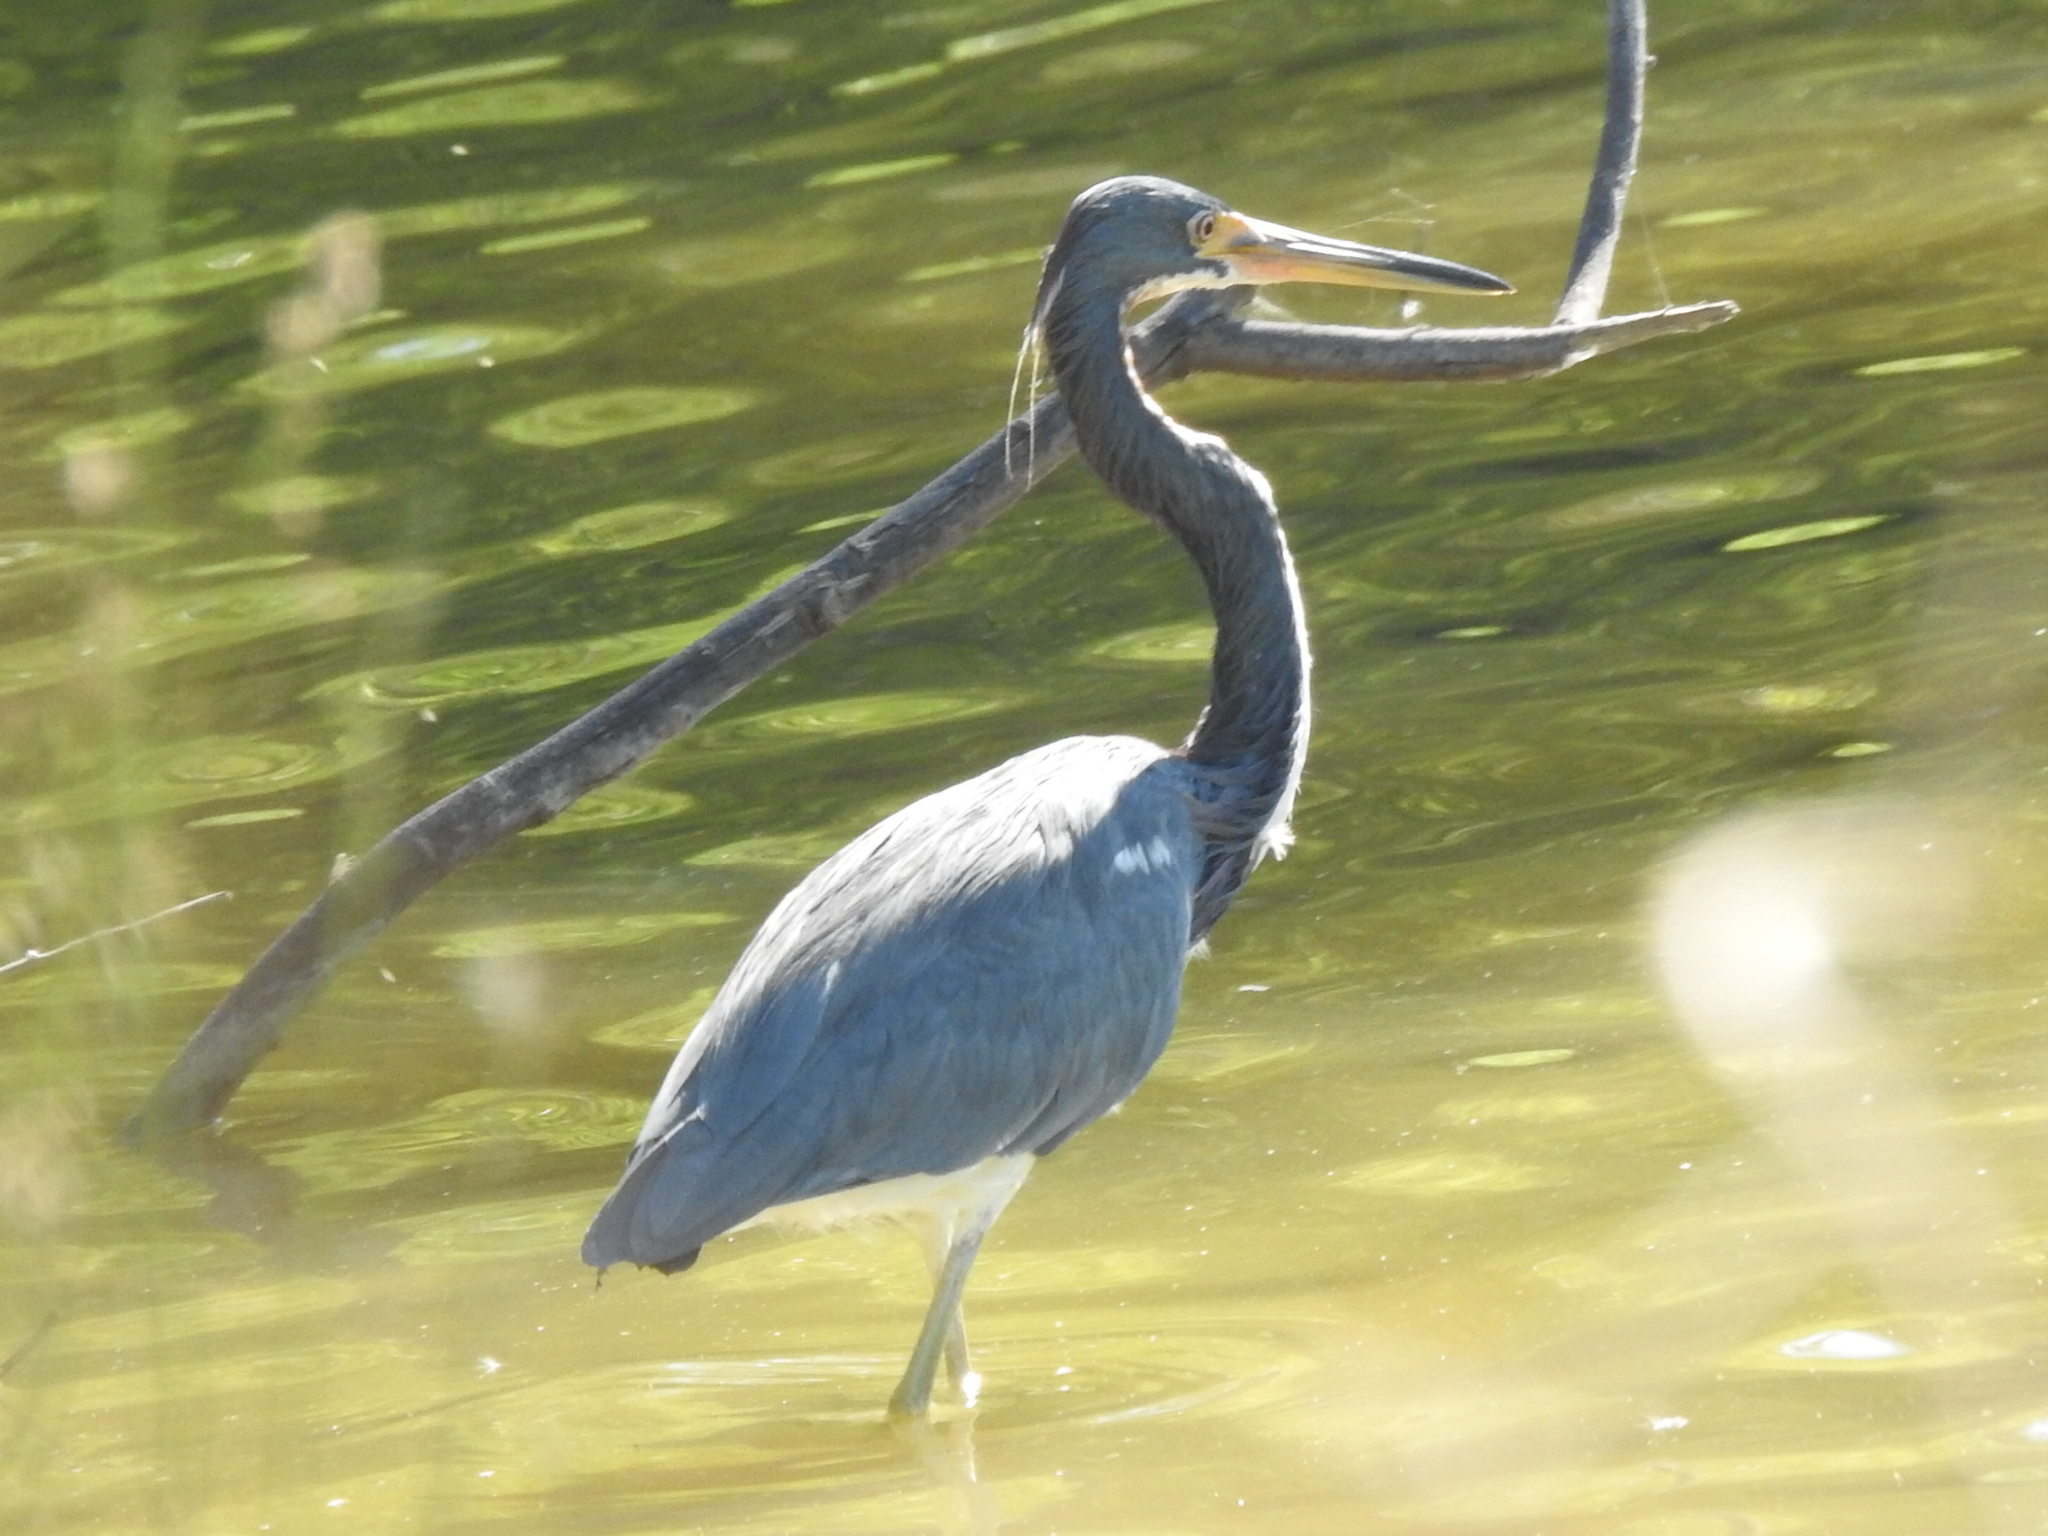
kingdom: Animalia
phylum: Chordata
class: Aves
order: Pelecaniformes
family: Ardeidae
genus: Egretta
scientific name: Egretta tricolor
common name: Tricolored heron
